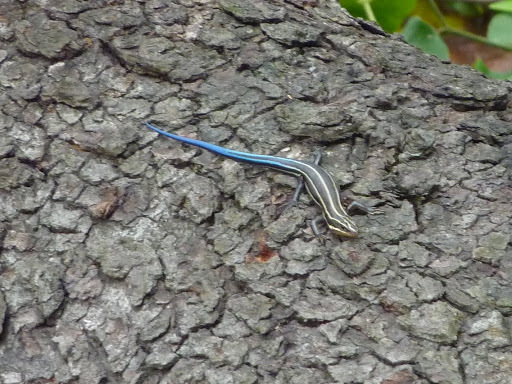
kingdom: Animalia
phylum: Chordata
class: Squamata
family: Scincidae
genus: Plestiodon
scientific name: Plestiodon fasciatus
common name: Five-lined skink
